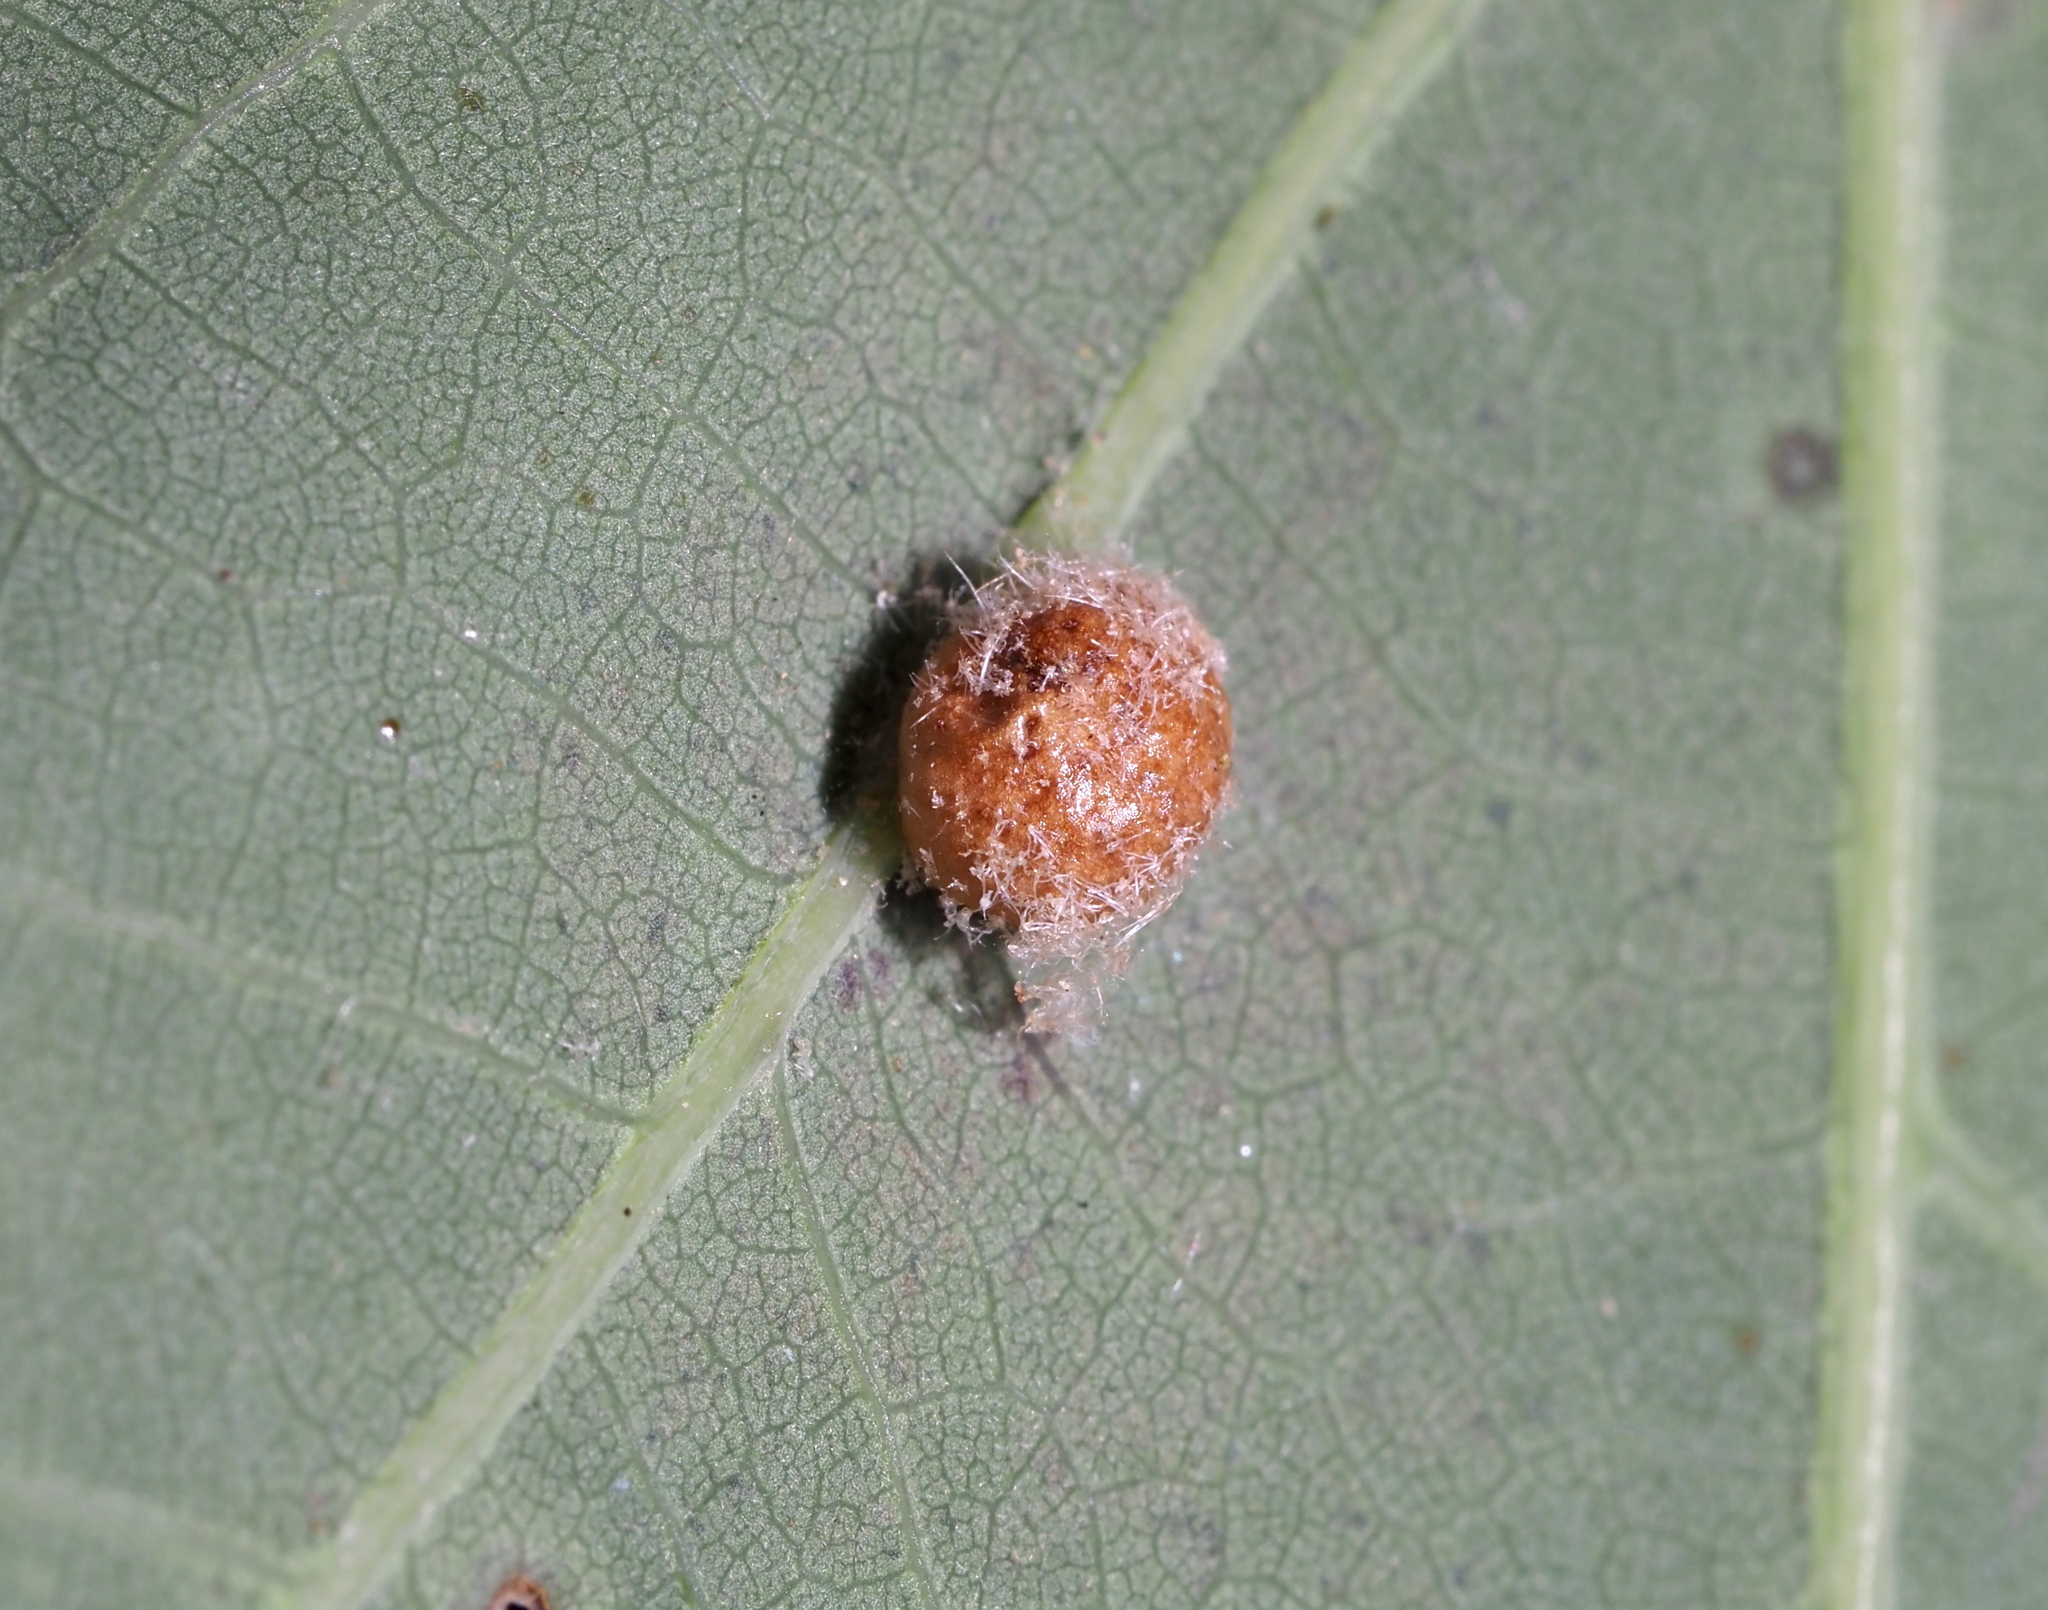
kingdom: Animalia
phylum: Arthropoda
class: Insecta
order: Hymenoptera
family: Cynipidae
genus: Philonix
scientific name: Philonix fulvicollis
